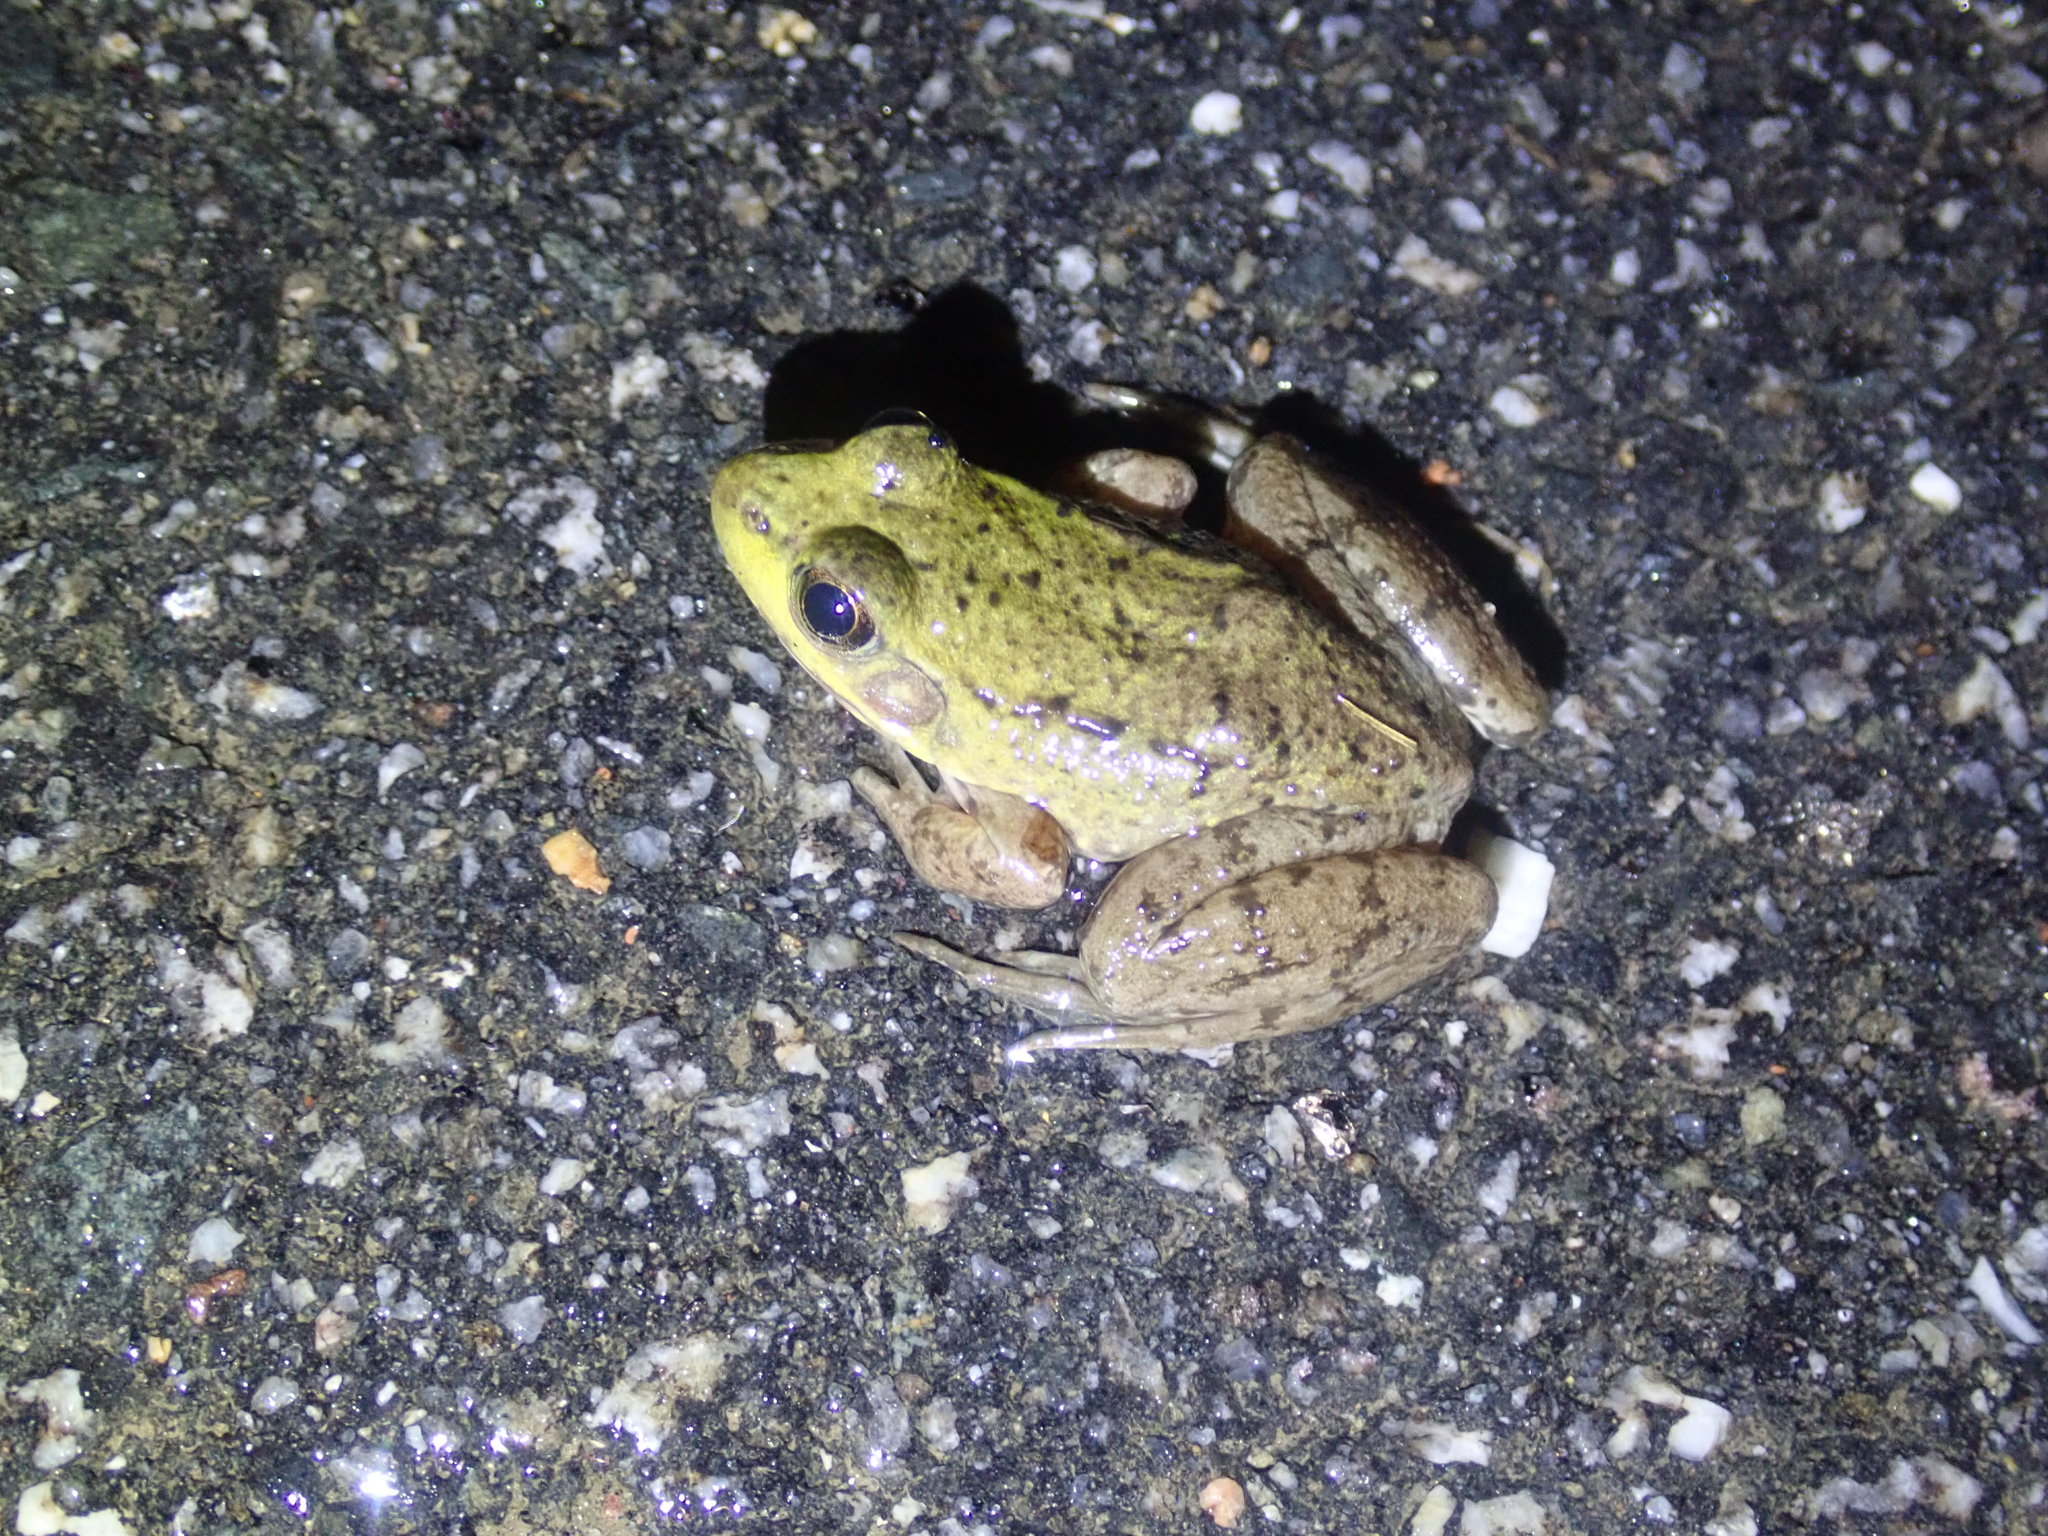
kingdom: Animalia
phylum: Chordata
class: Amphibia
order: Anura
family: Ranidae
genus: Lithobates
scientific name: Lithobates clamitans
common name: Green frog
